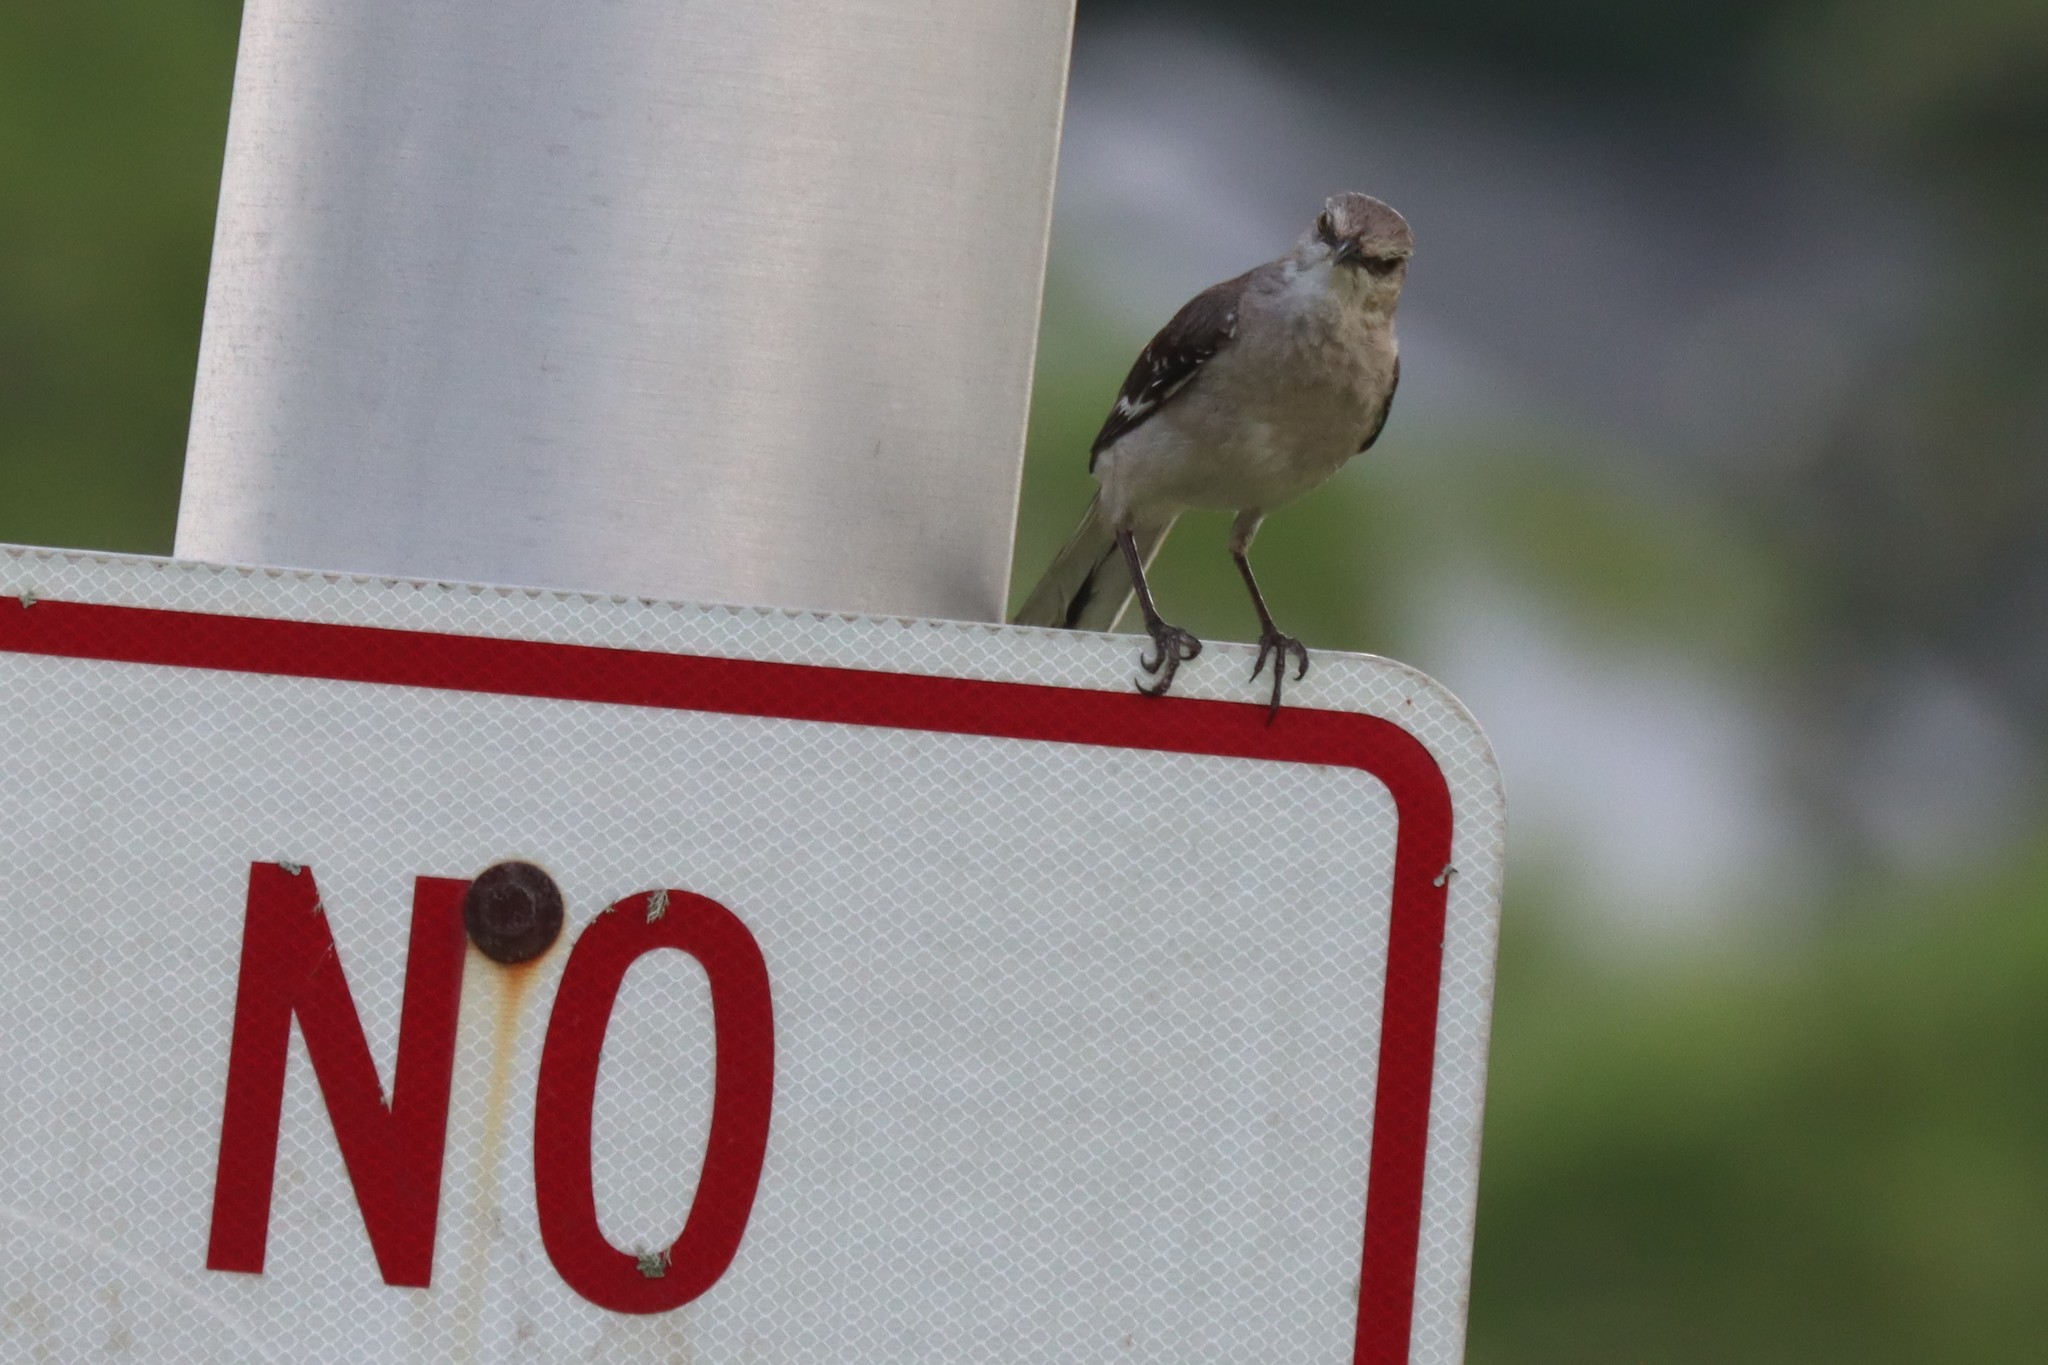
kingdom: Animalia
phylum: Chordata
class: Aves
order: Passeriformes
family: Mimidae
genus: Mimus
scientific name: Mimus polyglottos
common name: Northern mockingbird
